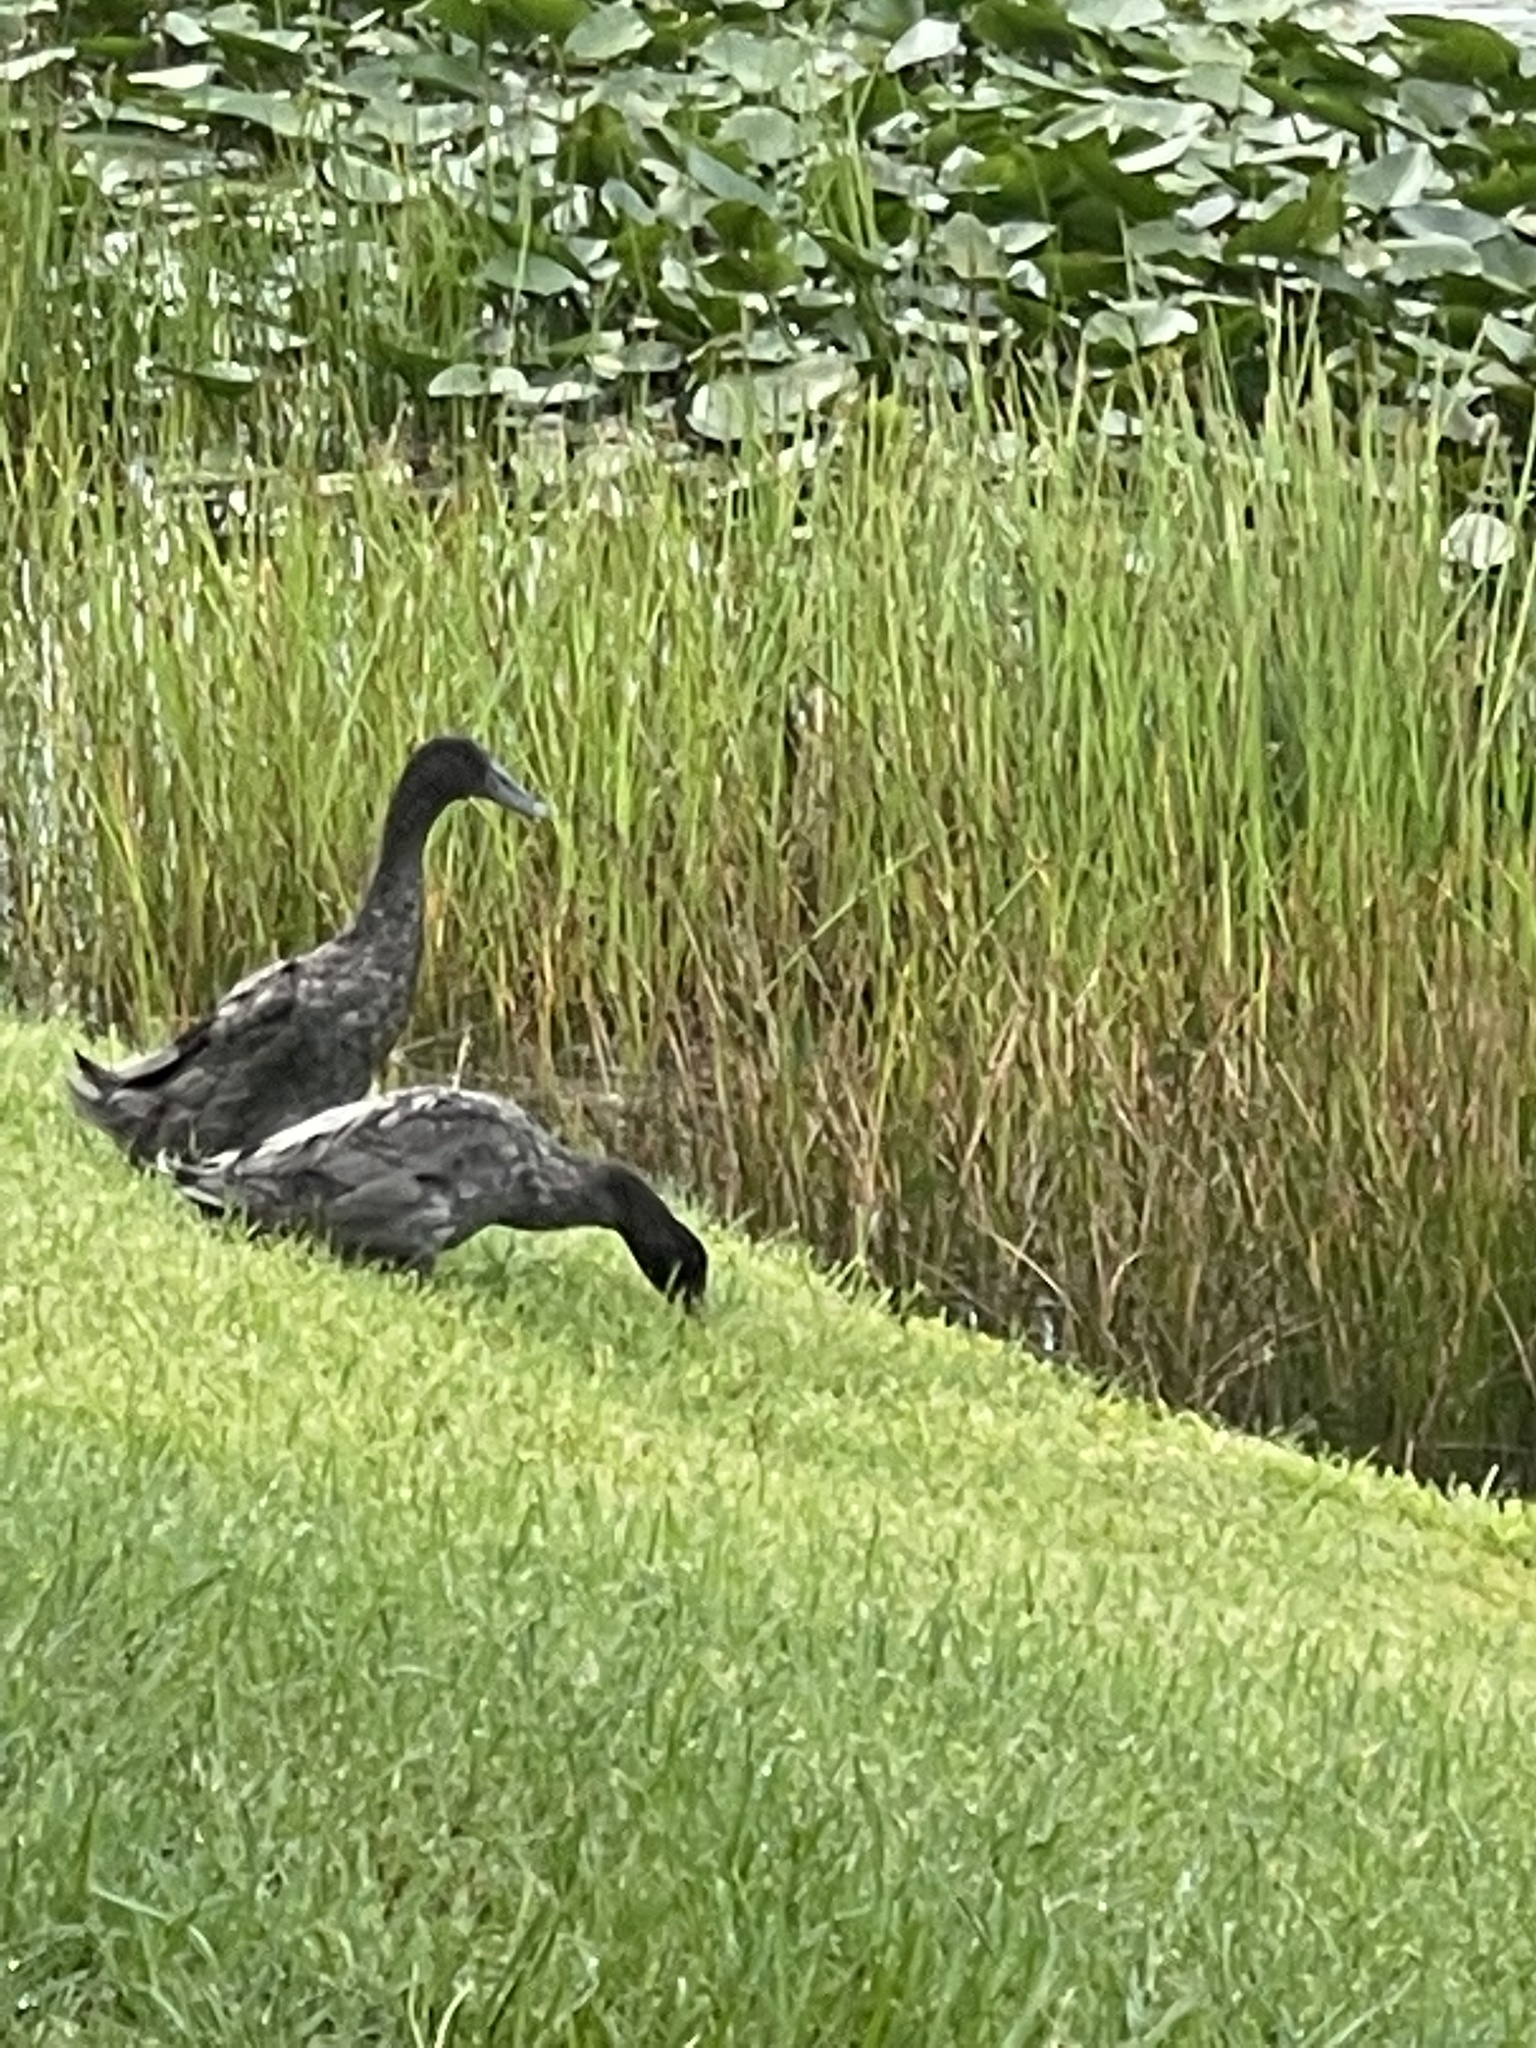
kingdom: Animalia
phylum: Chordata
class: Aves
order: Anseriformes
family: Anatidae
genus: Anas
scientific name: Anas platyrhynchos
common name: Mallard
